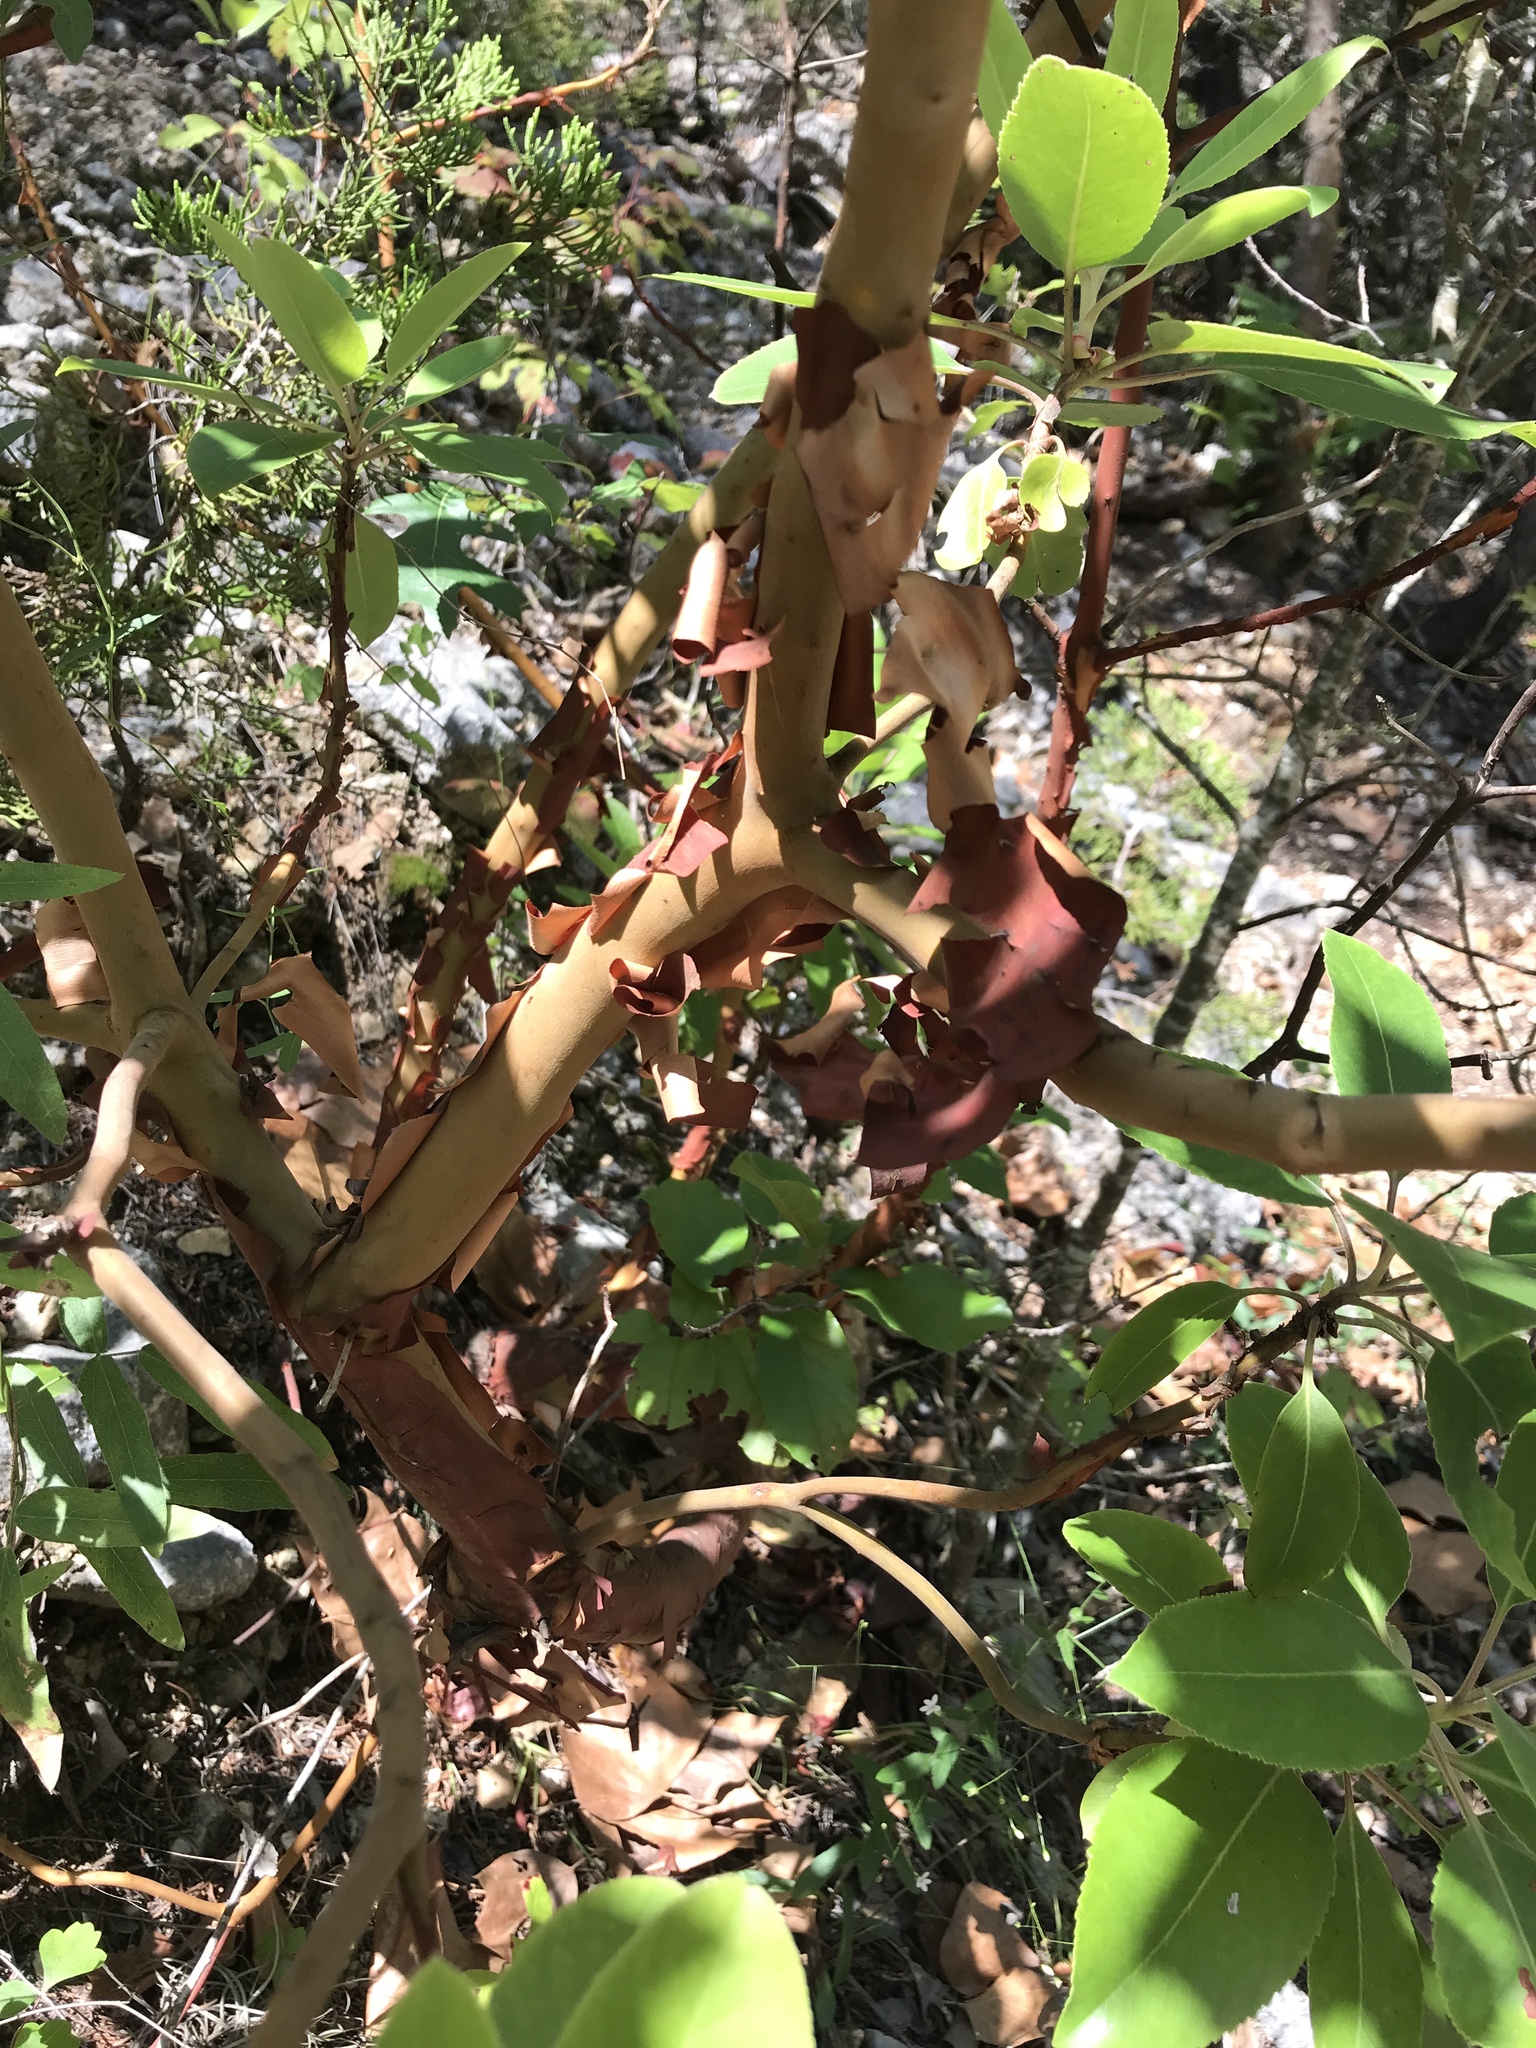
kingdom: Plantae
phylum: Tracheophyta
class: Magnoliopsida
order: Ericales
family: Ericaceae
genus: Arbutus
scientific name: Arbutus xalapensis
